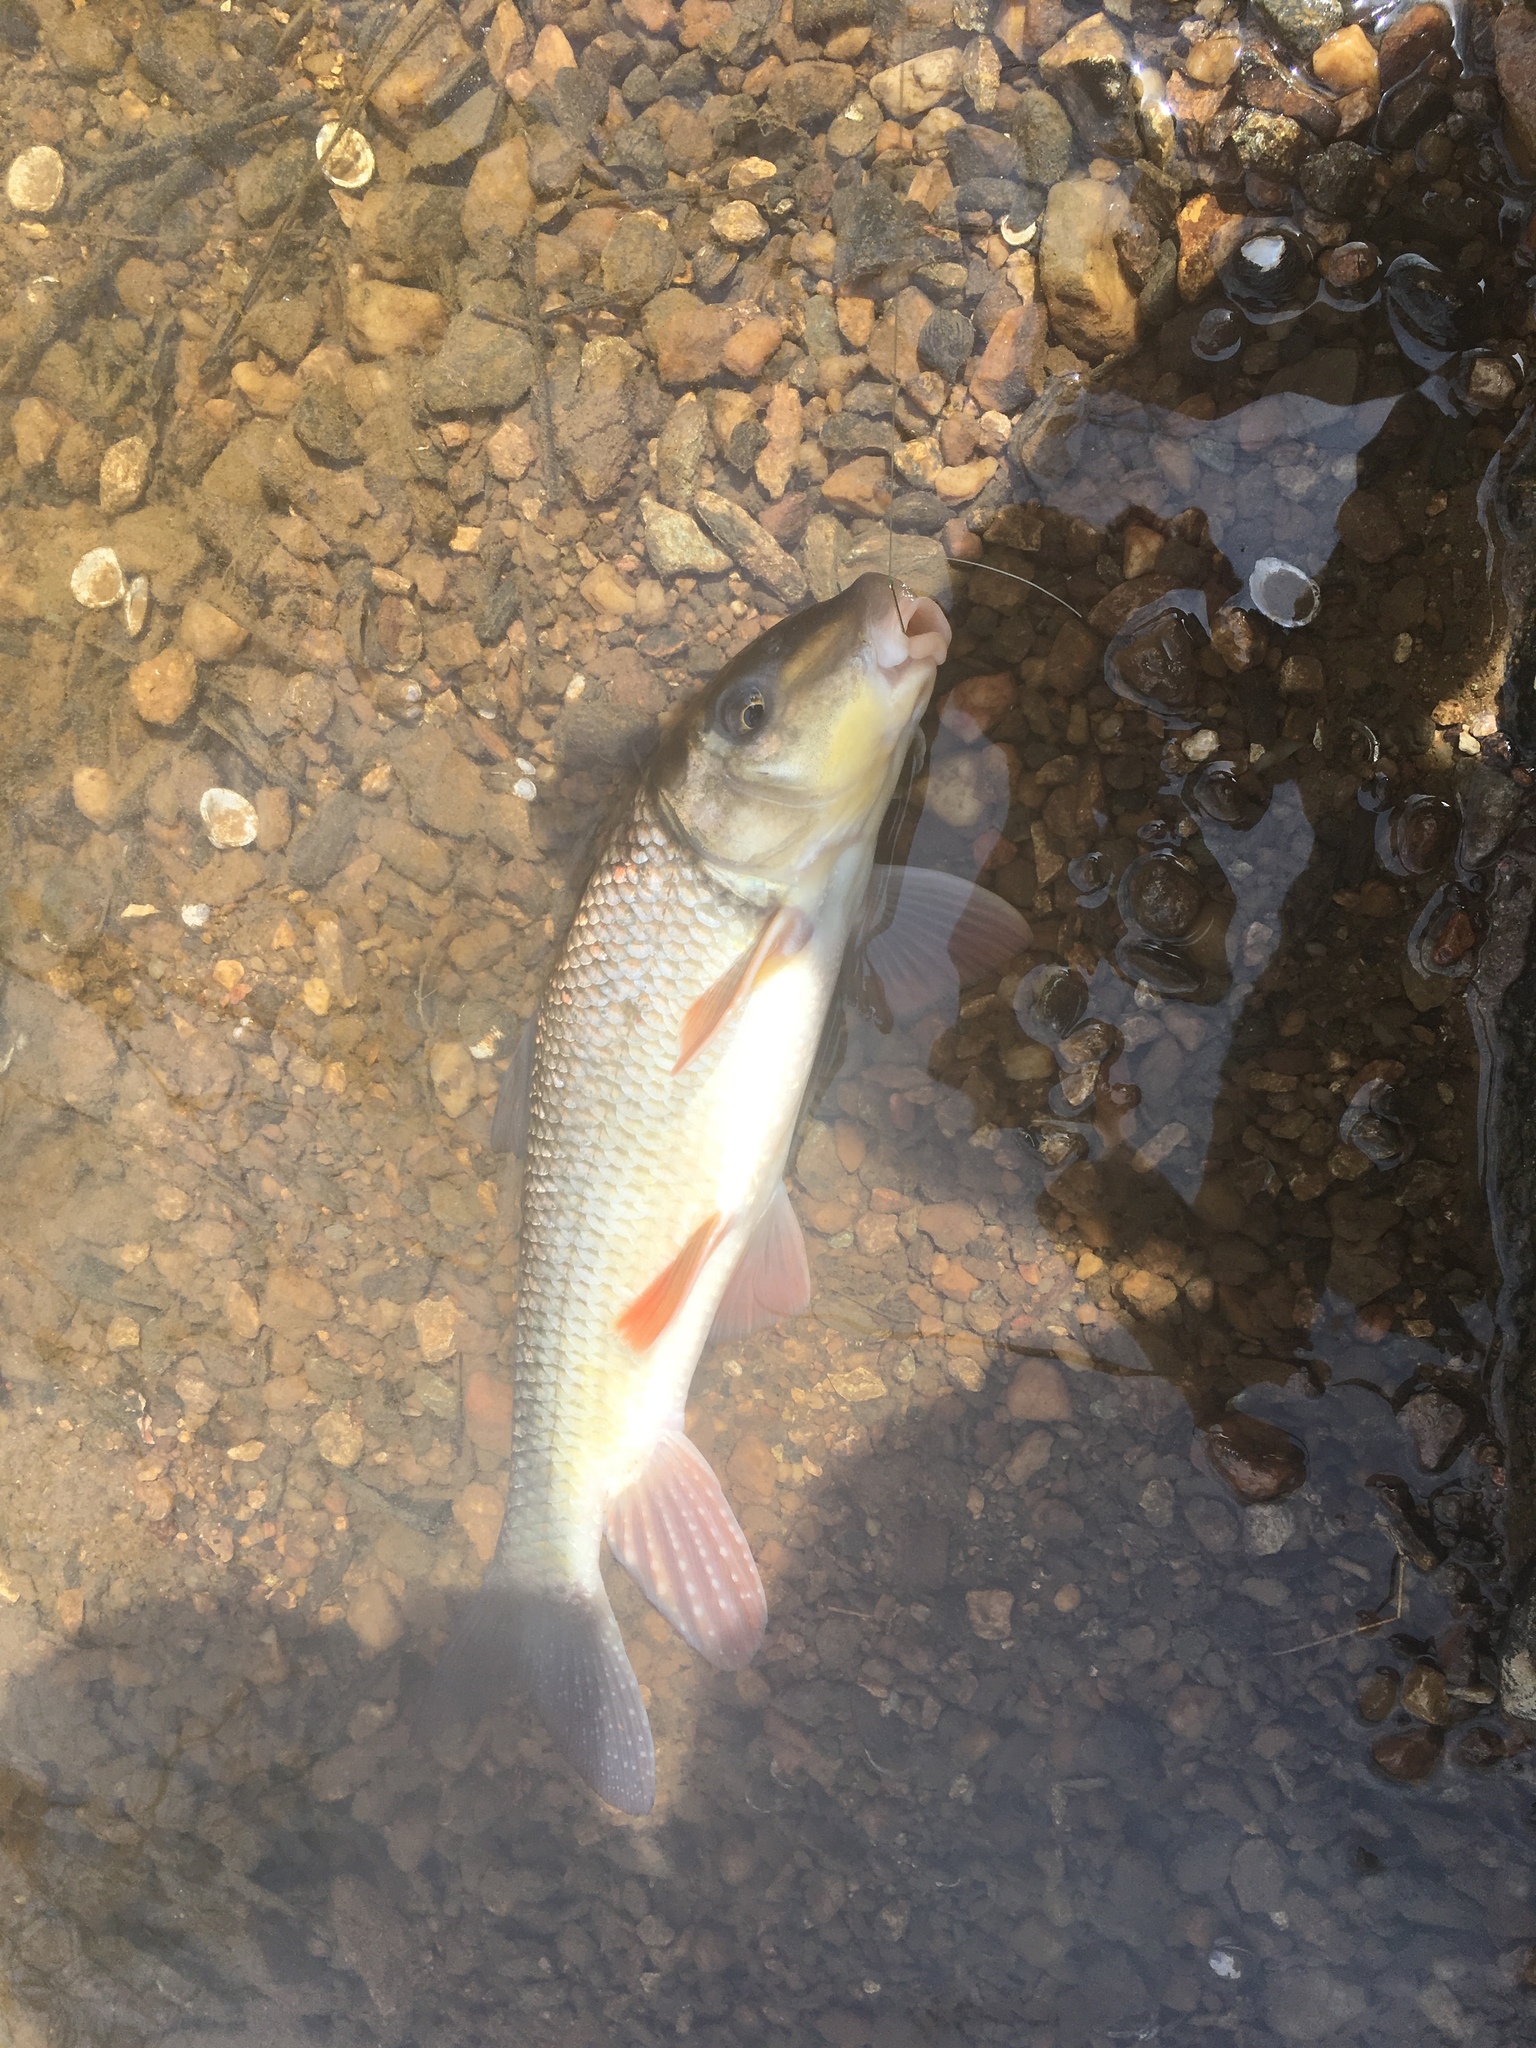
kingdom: Animalia
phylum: Chordata
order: Cypriniformes
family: Catostomidae
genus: Moxostoma
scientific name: Moxostoma collapsum
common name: Notchlip redhorse
